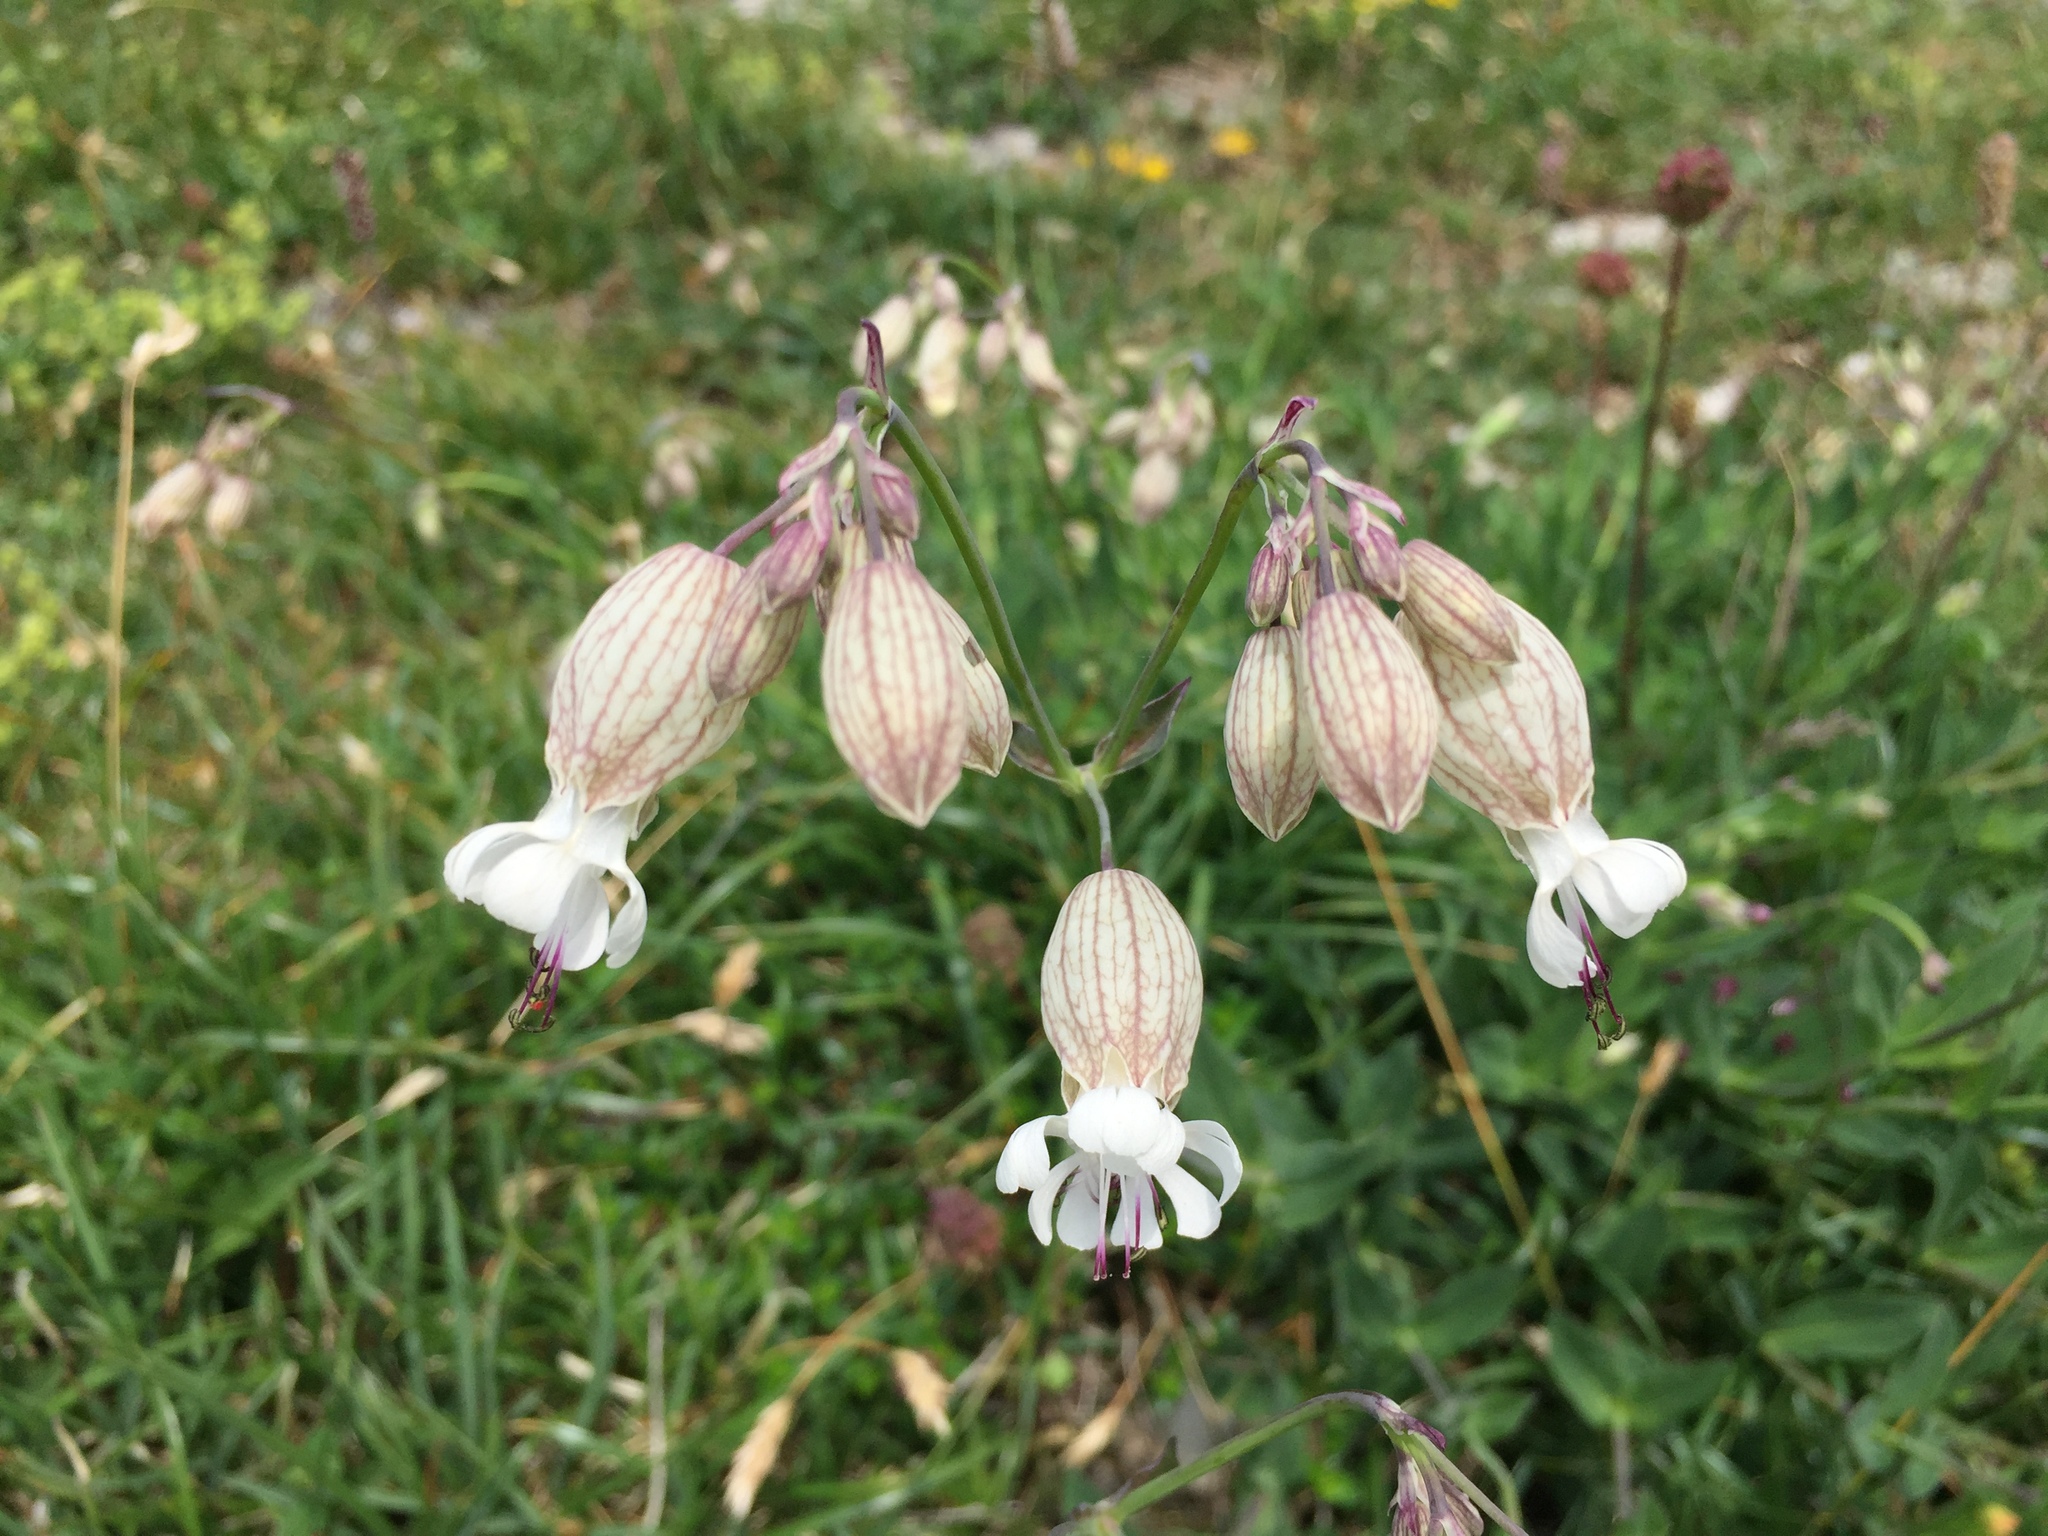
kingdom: Plantae
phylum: Tracheophyta
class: Magnoliopsida
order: Caryophyllales
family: Caryophyllaceae
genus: Silene
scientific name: Silene vulgaris
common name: Bladder campion
